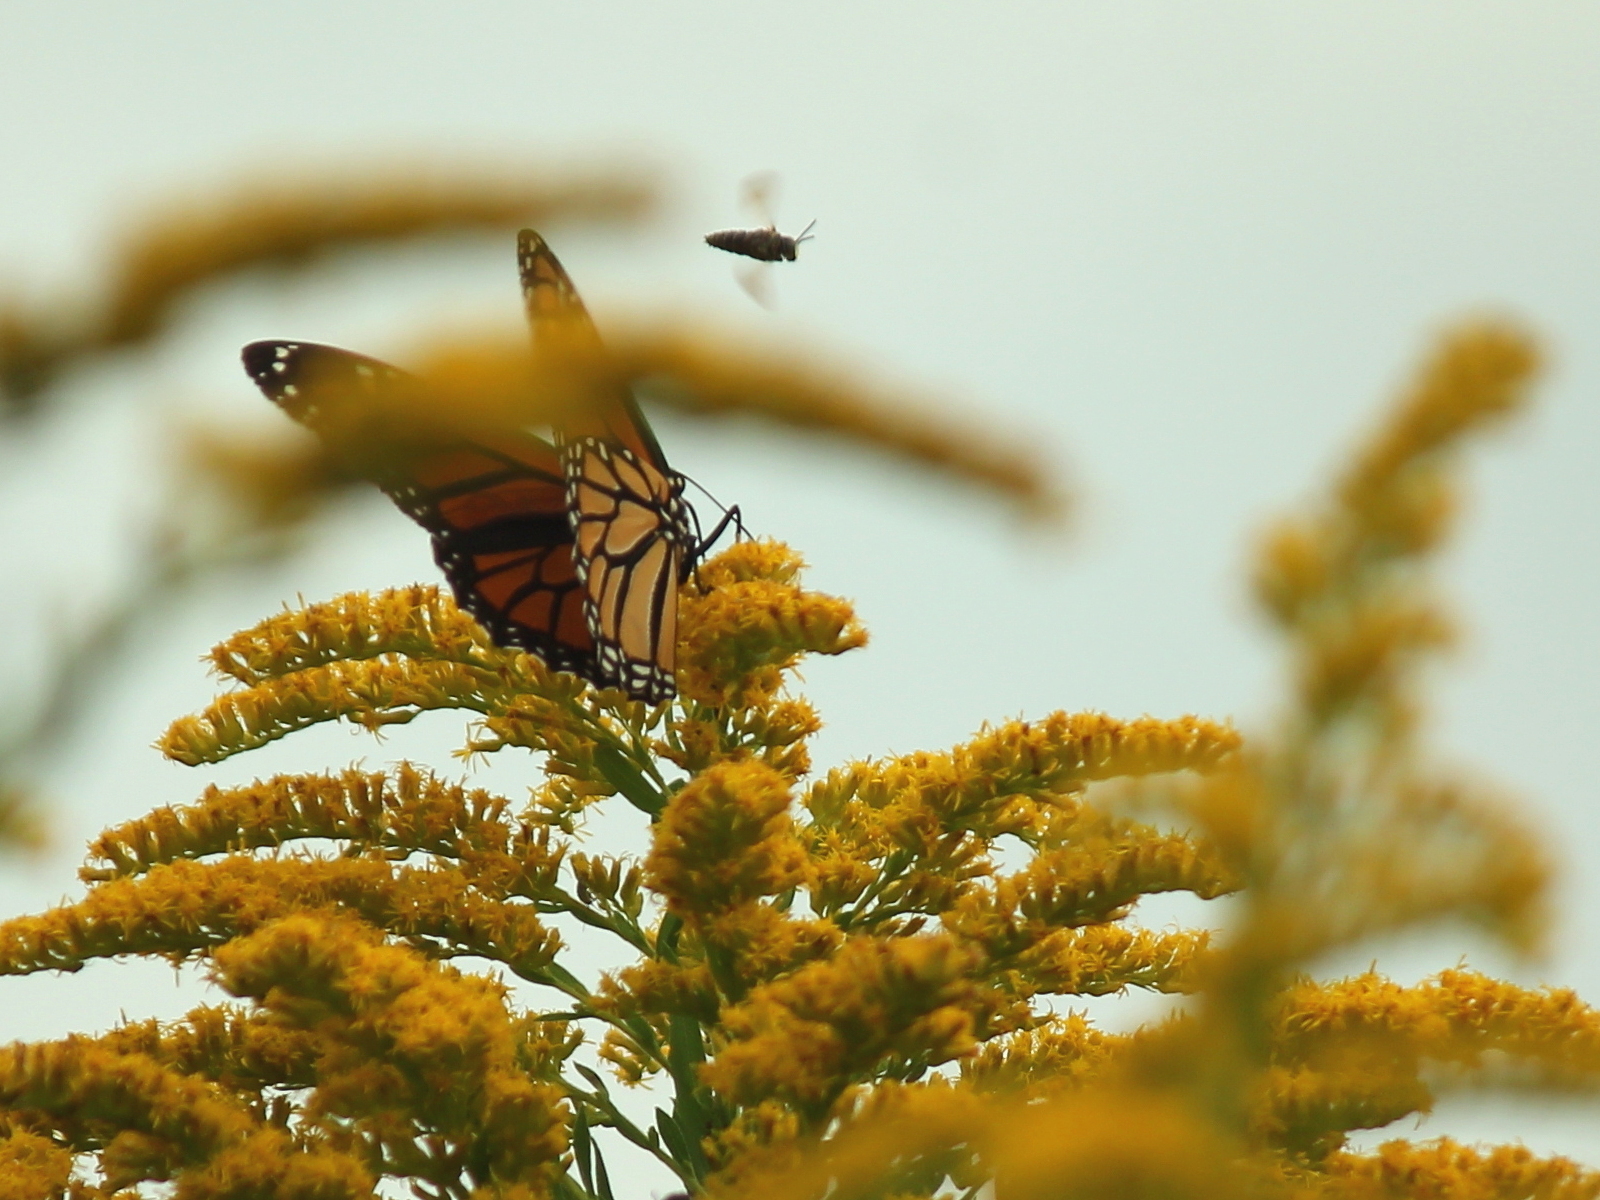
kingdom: Animalia
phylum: Arthropoda
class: Insecta
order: Lepidoptera
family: Nymphalidae
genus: Danaus
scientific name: Danaus plexippus
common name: Monarch
